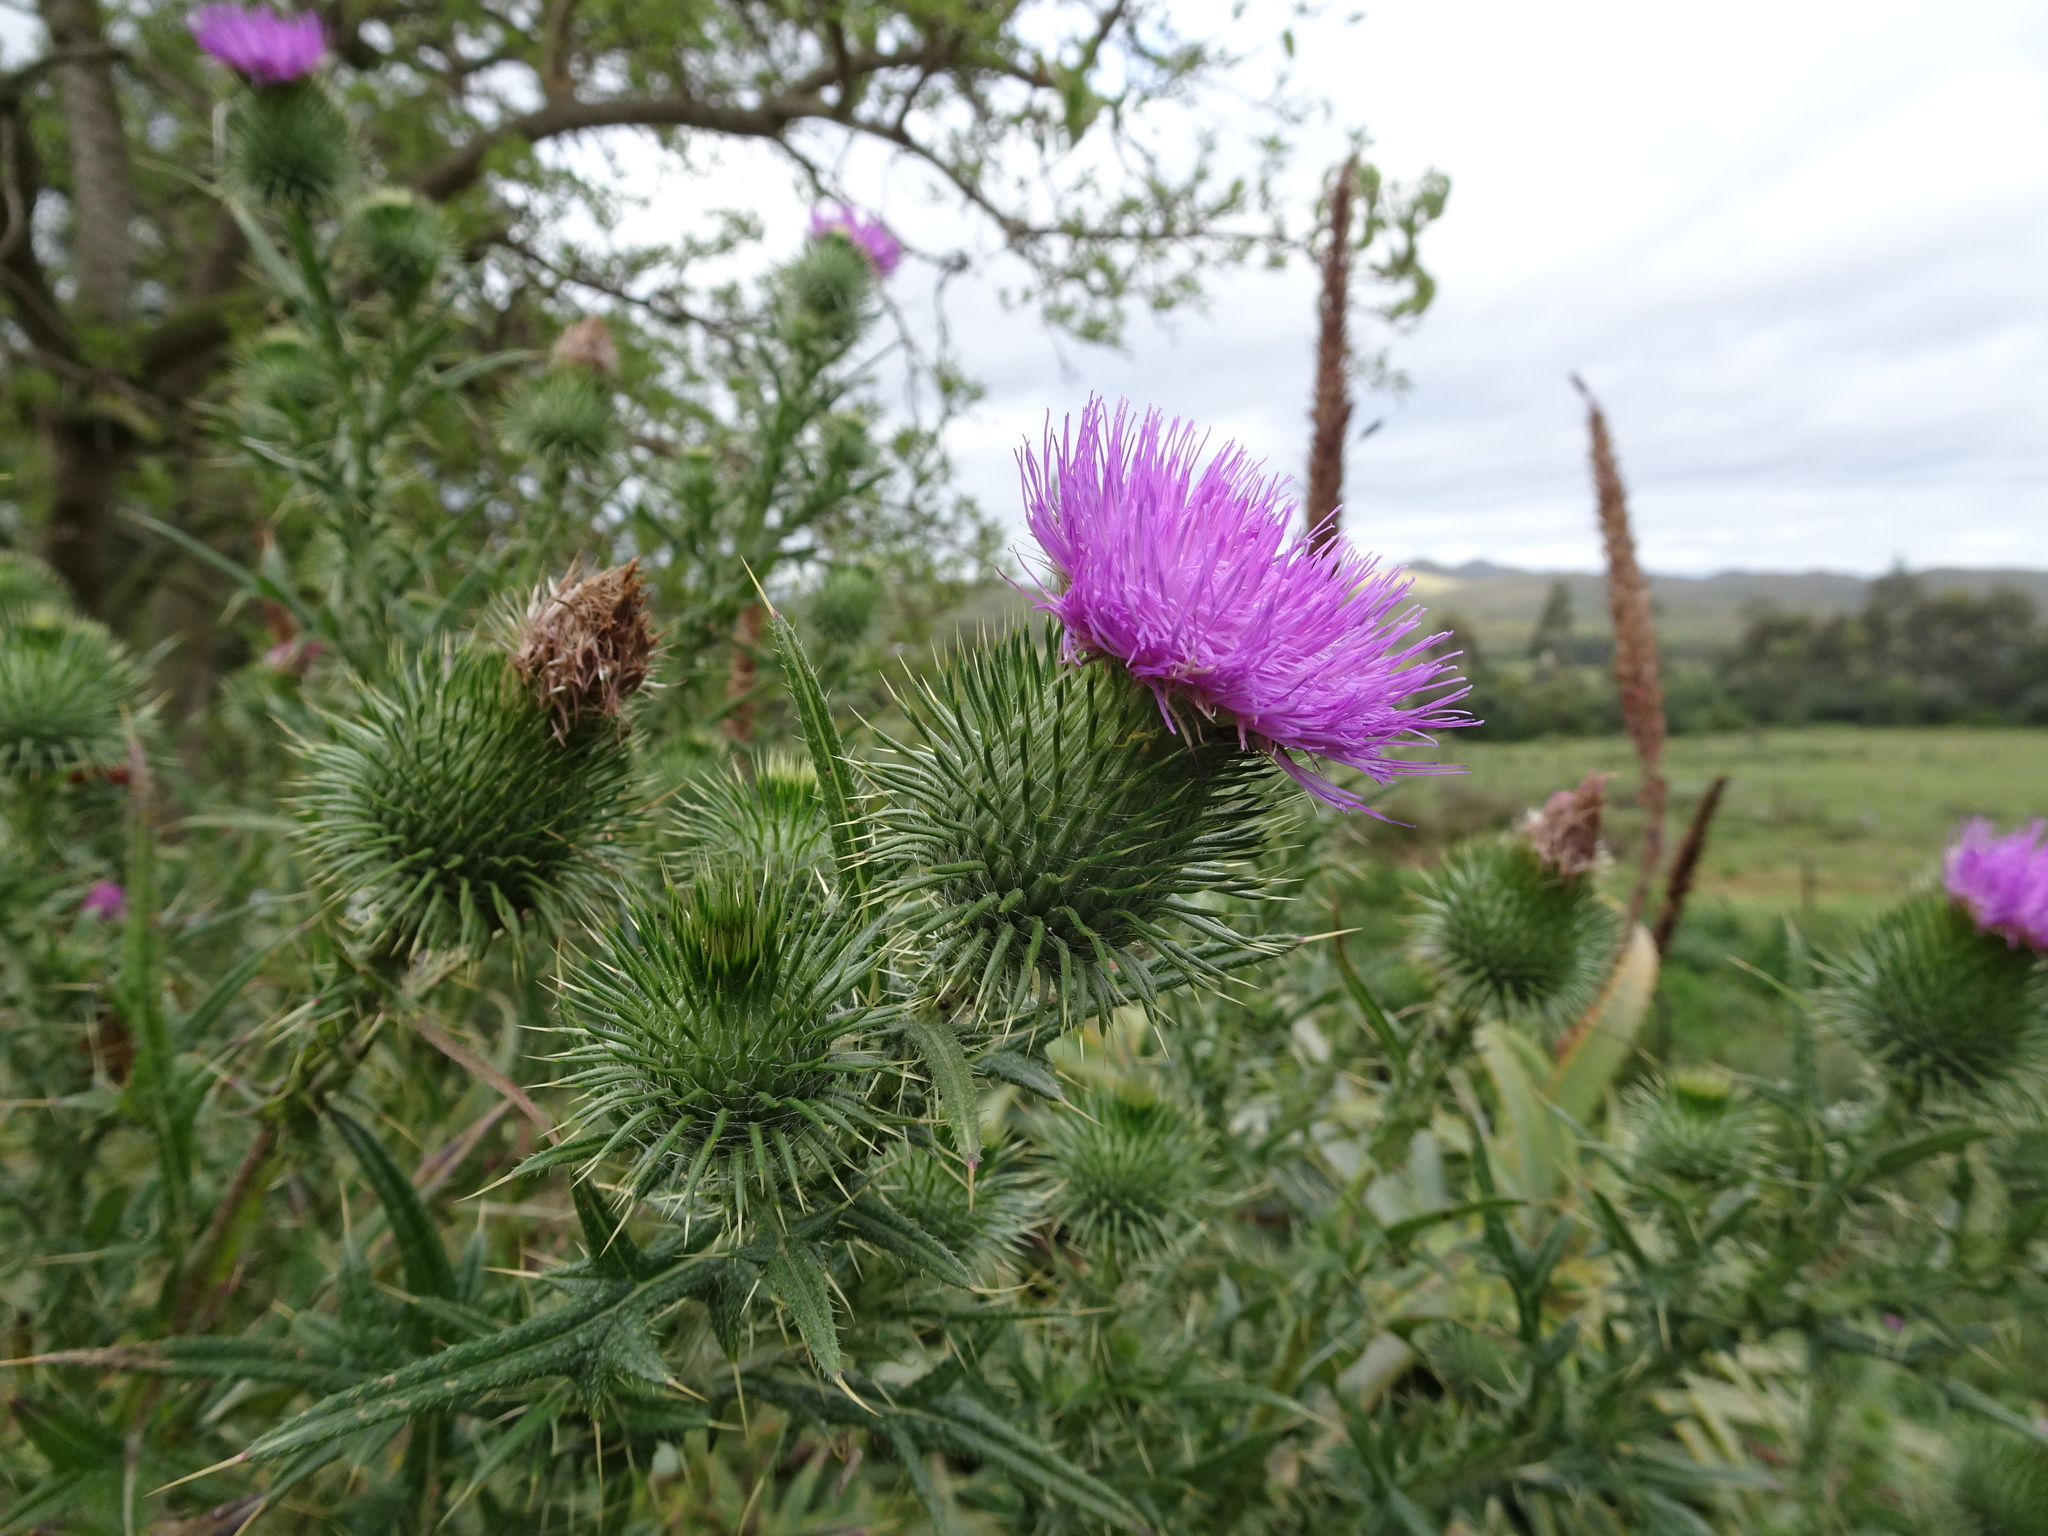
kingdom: Plantae
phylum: Tracheophyta
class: Magnoliopsida
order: Asterales
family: Asteraceae
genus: Cirsium
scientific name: Cirsium vulgare
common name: Bull thistle
